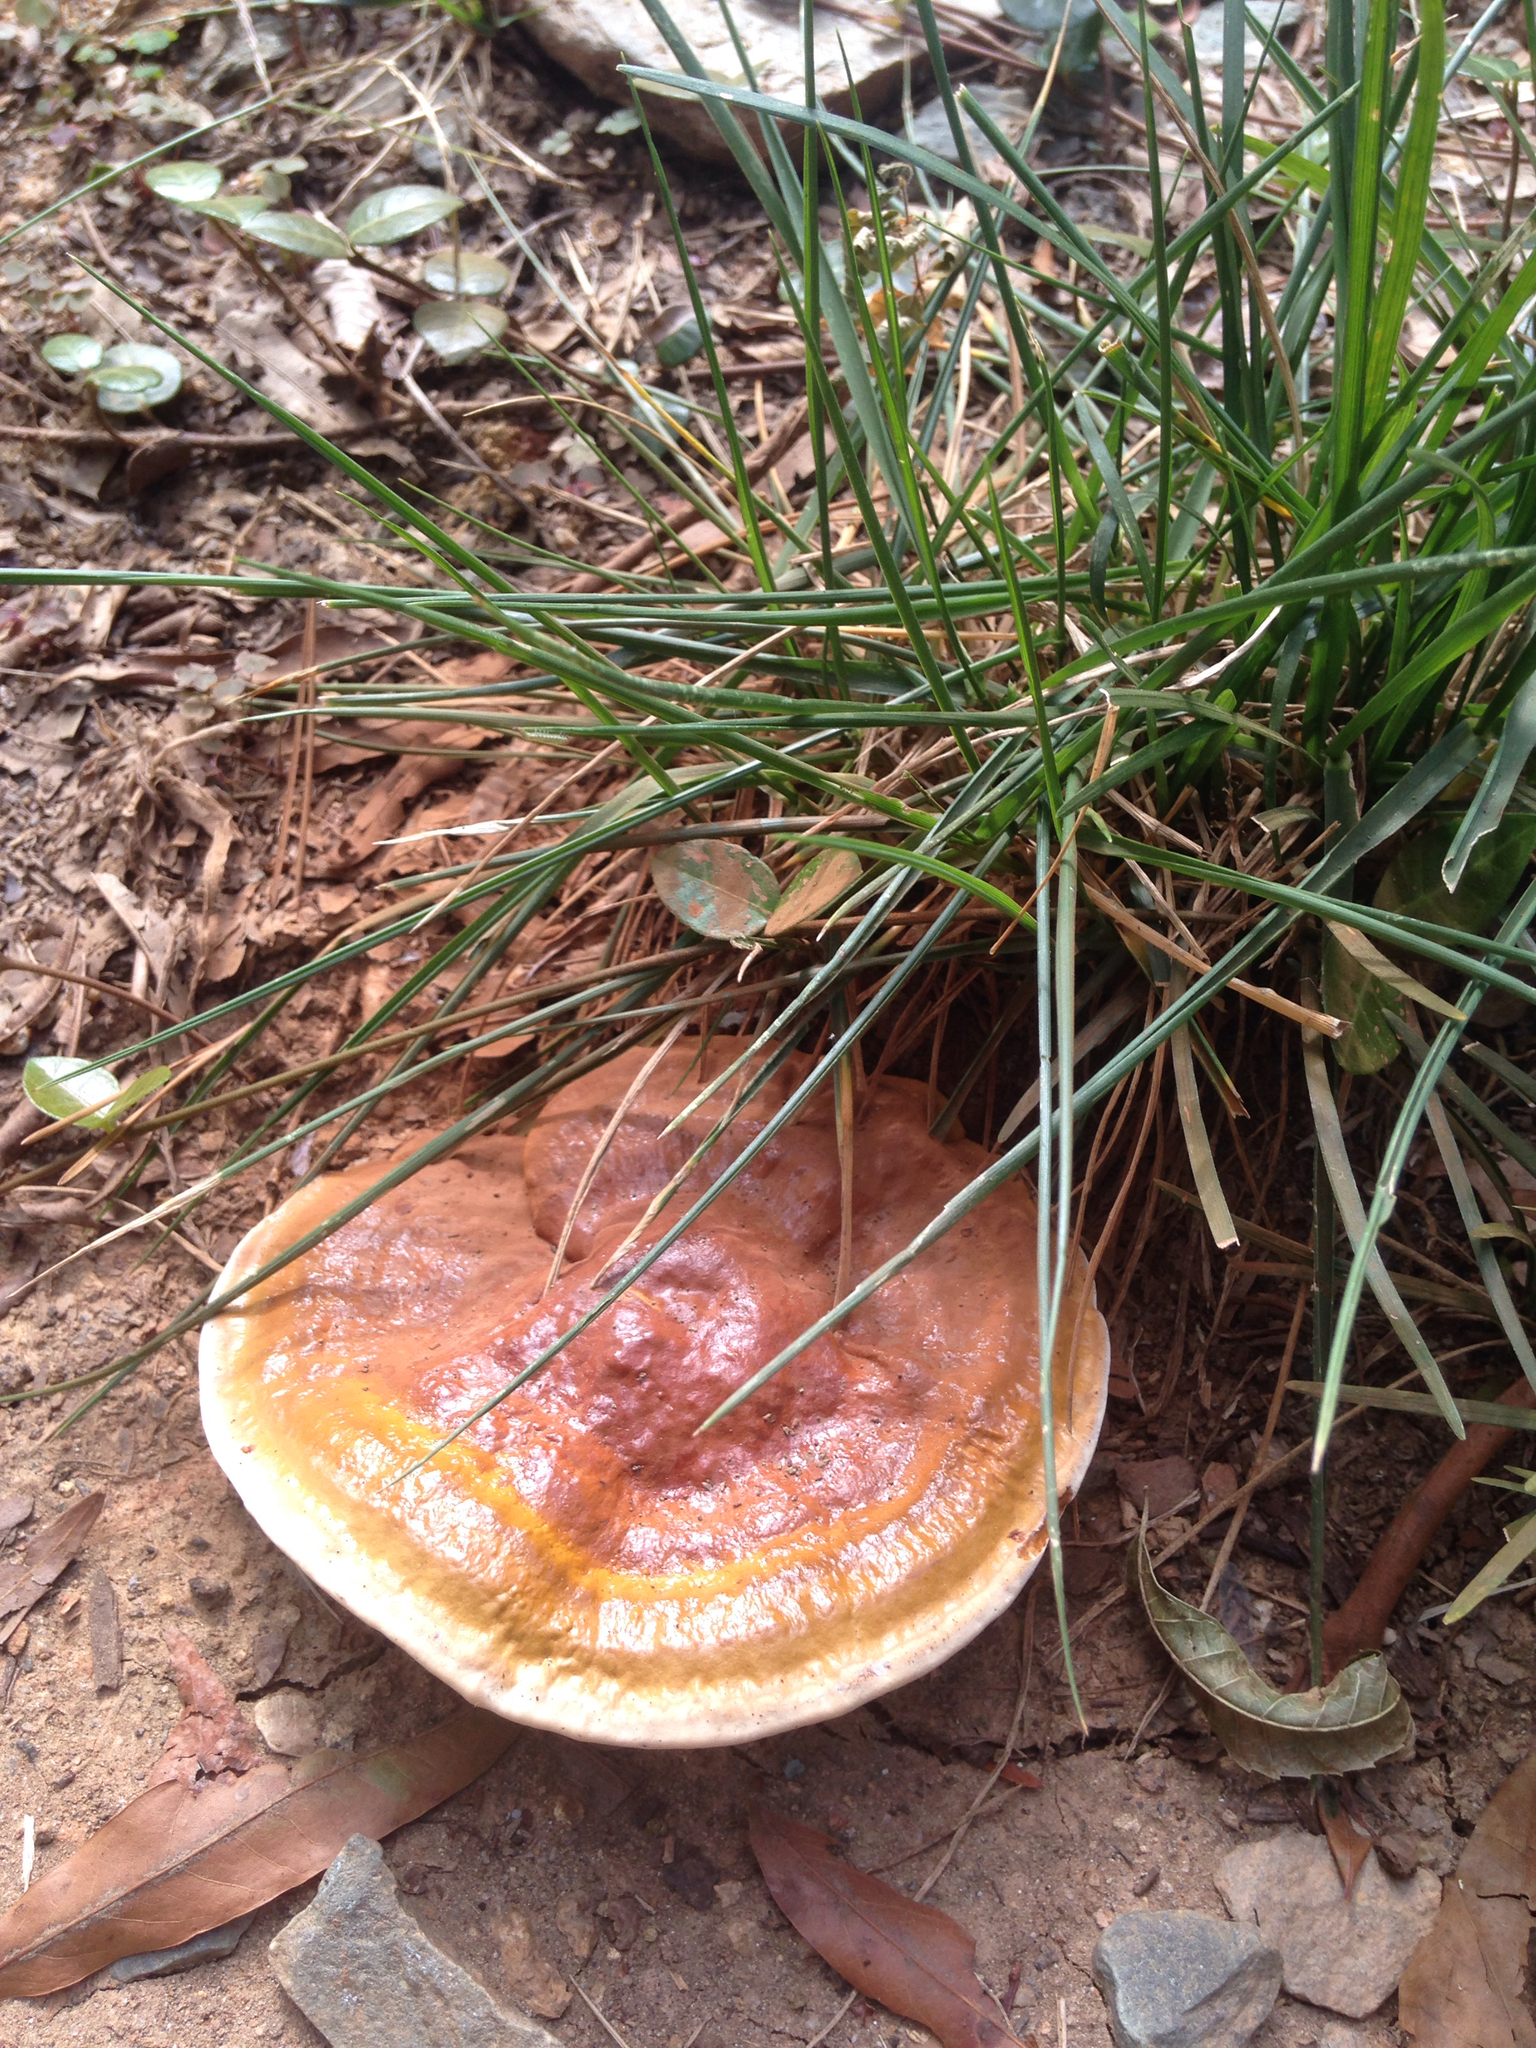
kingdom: Fungi
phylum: Basidiomycota
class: Agaricomycetes
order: Polyporales
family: Polyporaceae
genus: Ganoderma
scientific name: Ganoderma resinaceum
